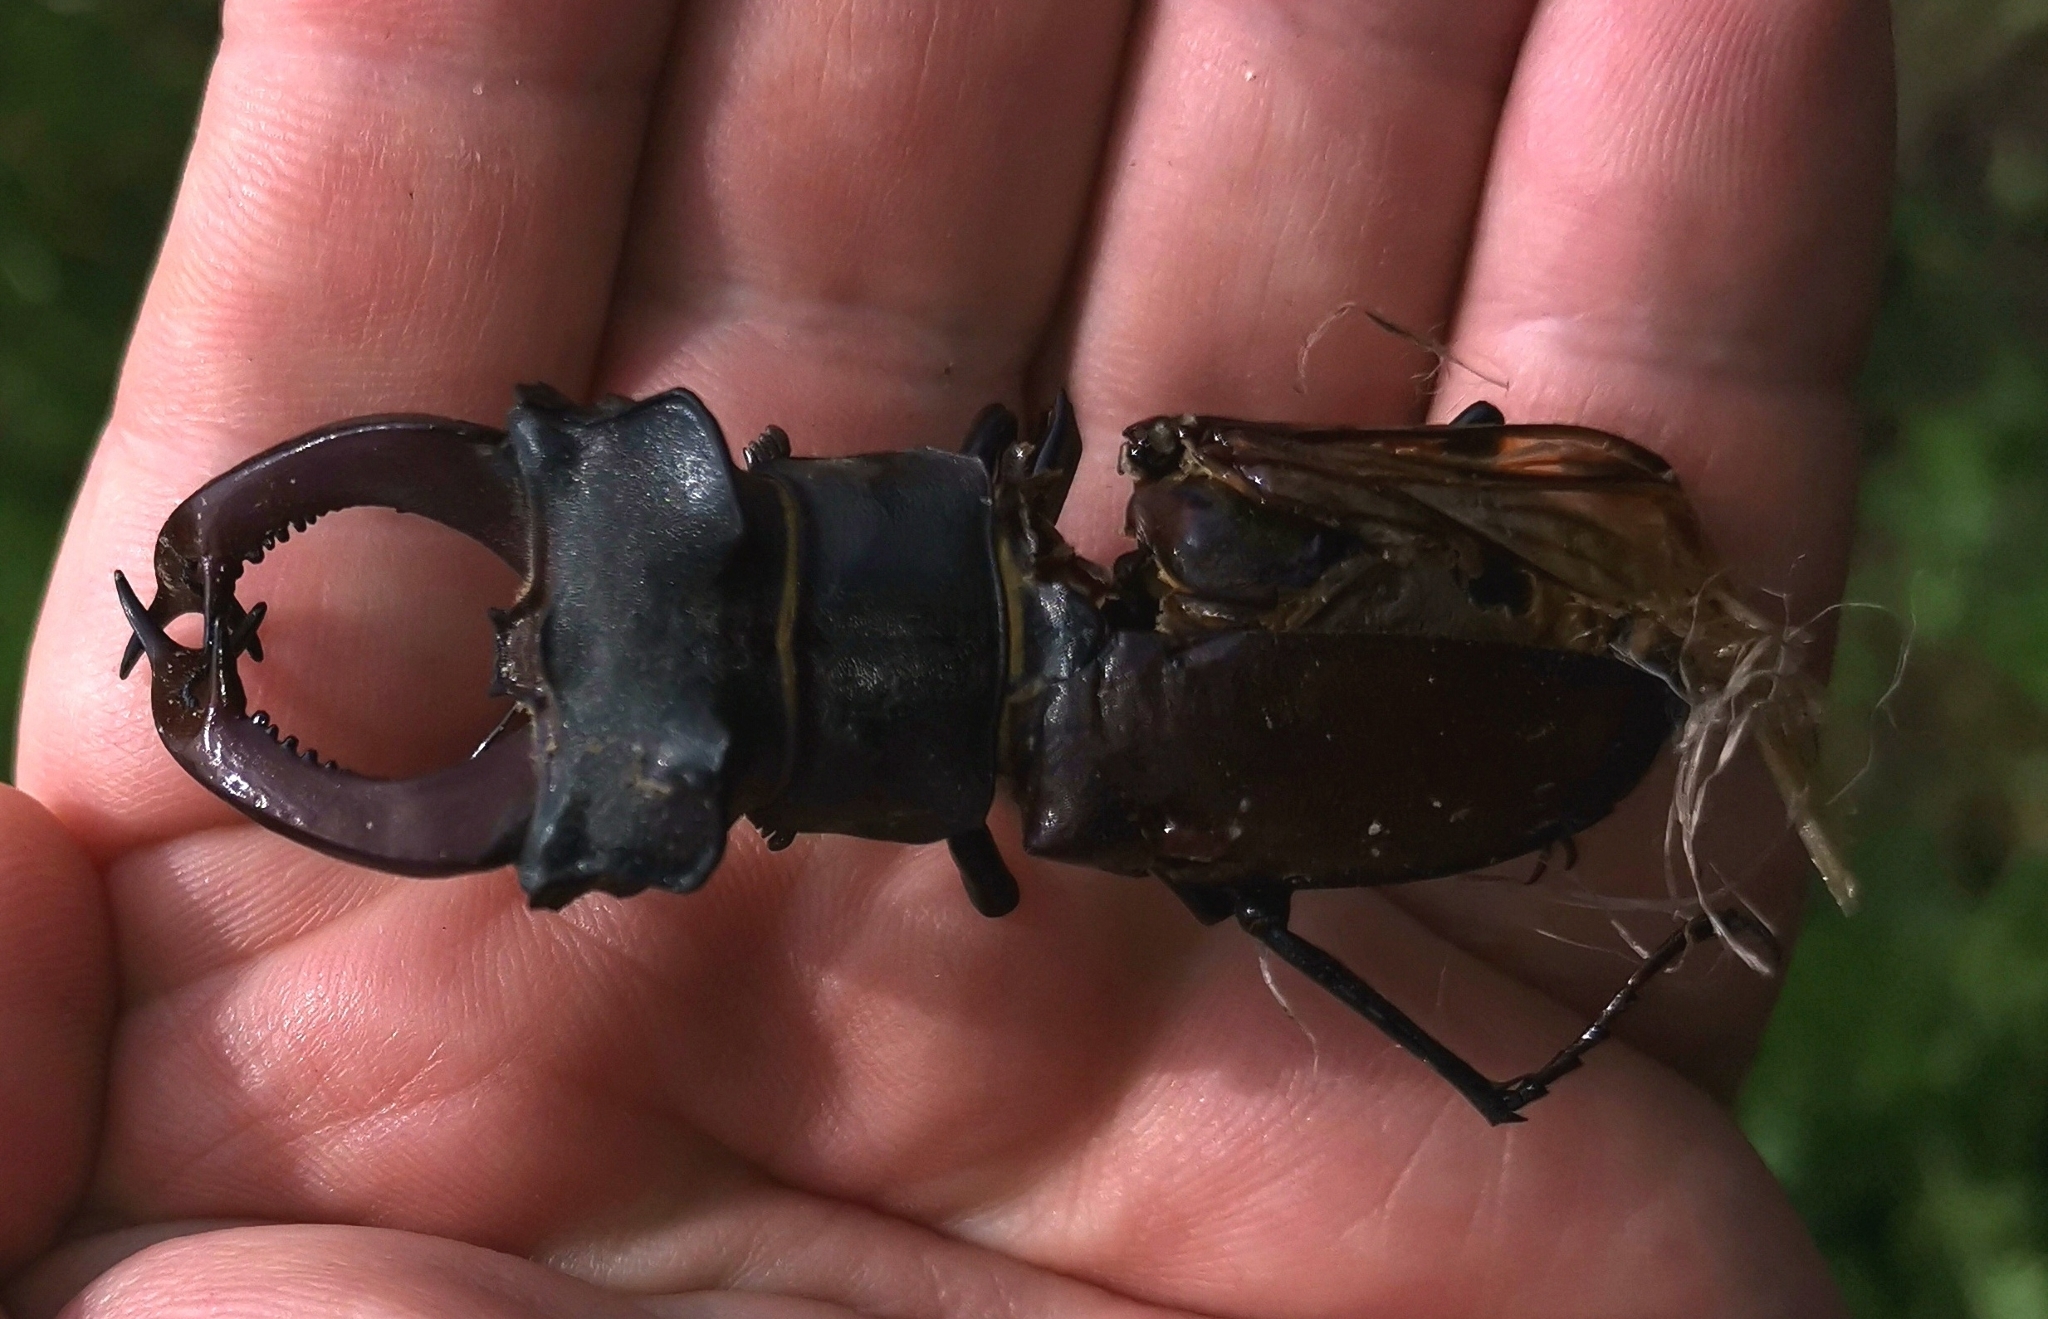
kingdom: Animalia
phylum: Arthropoda
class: Insecta
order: Coleoptera
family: Lucanidae
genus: Lucanus
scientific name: Lucanus cervus
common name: Stag beetle
